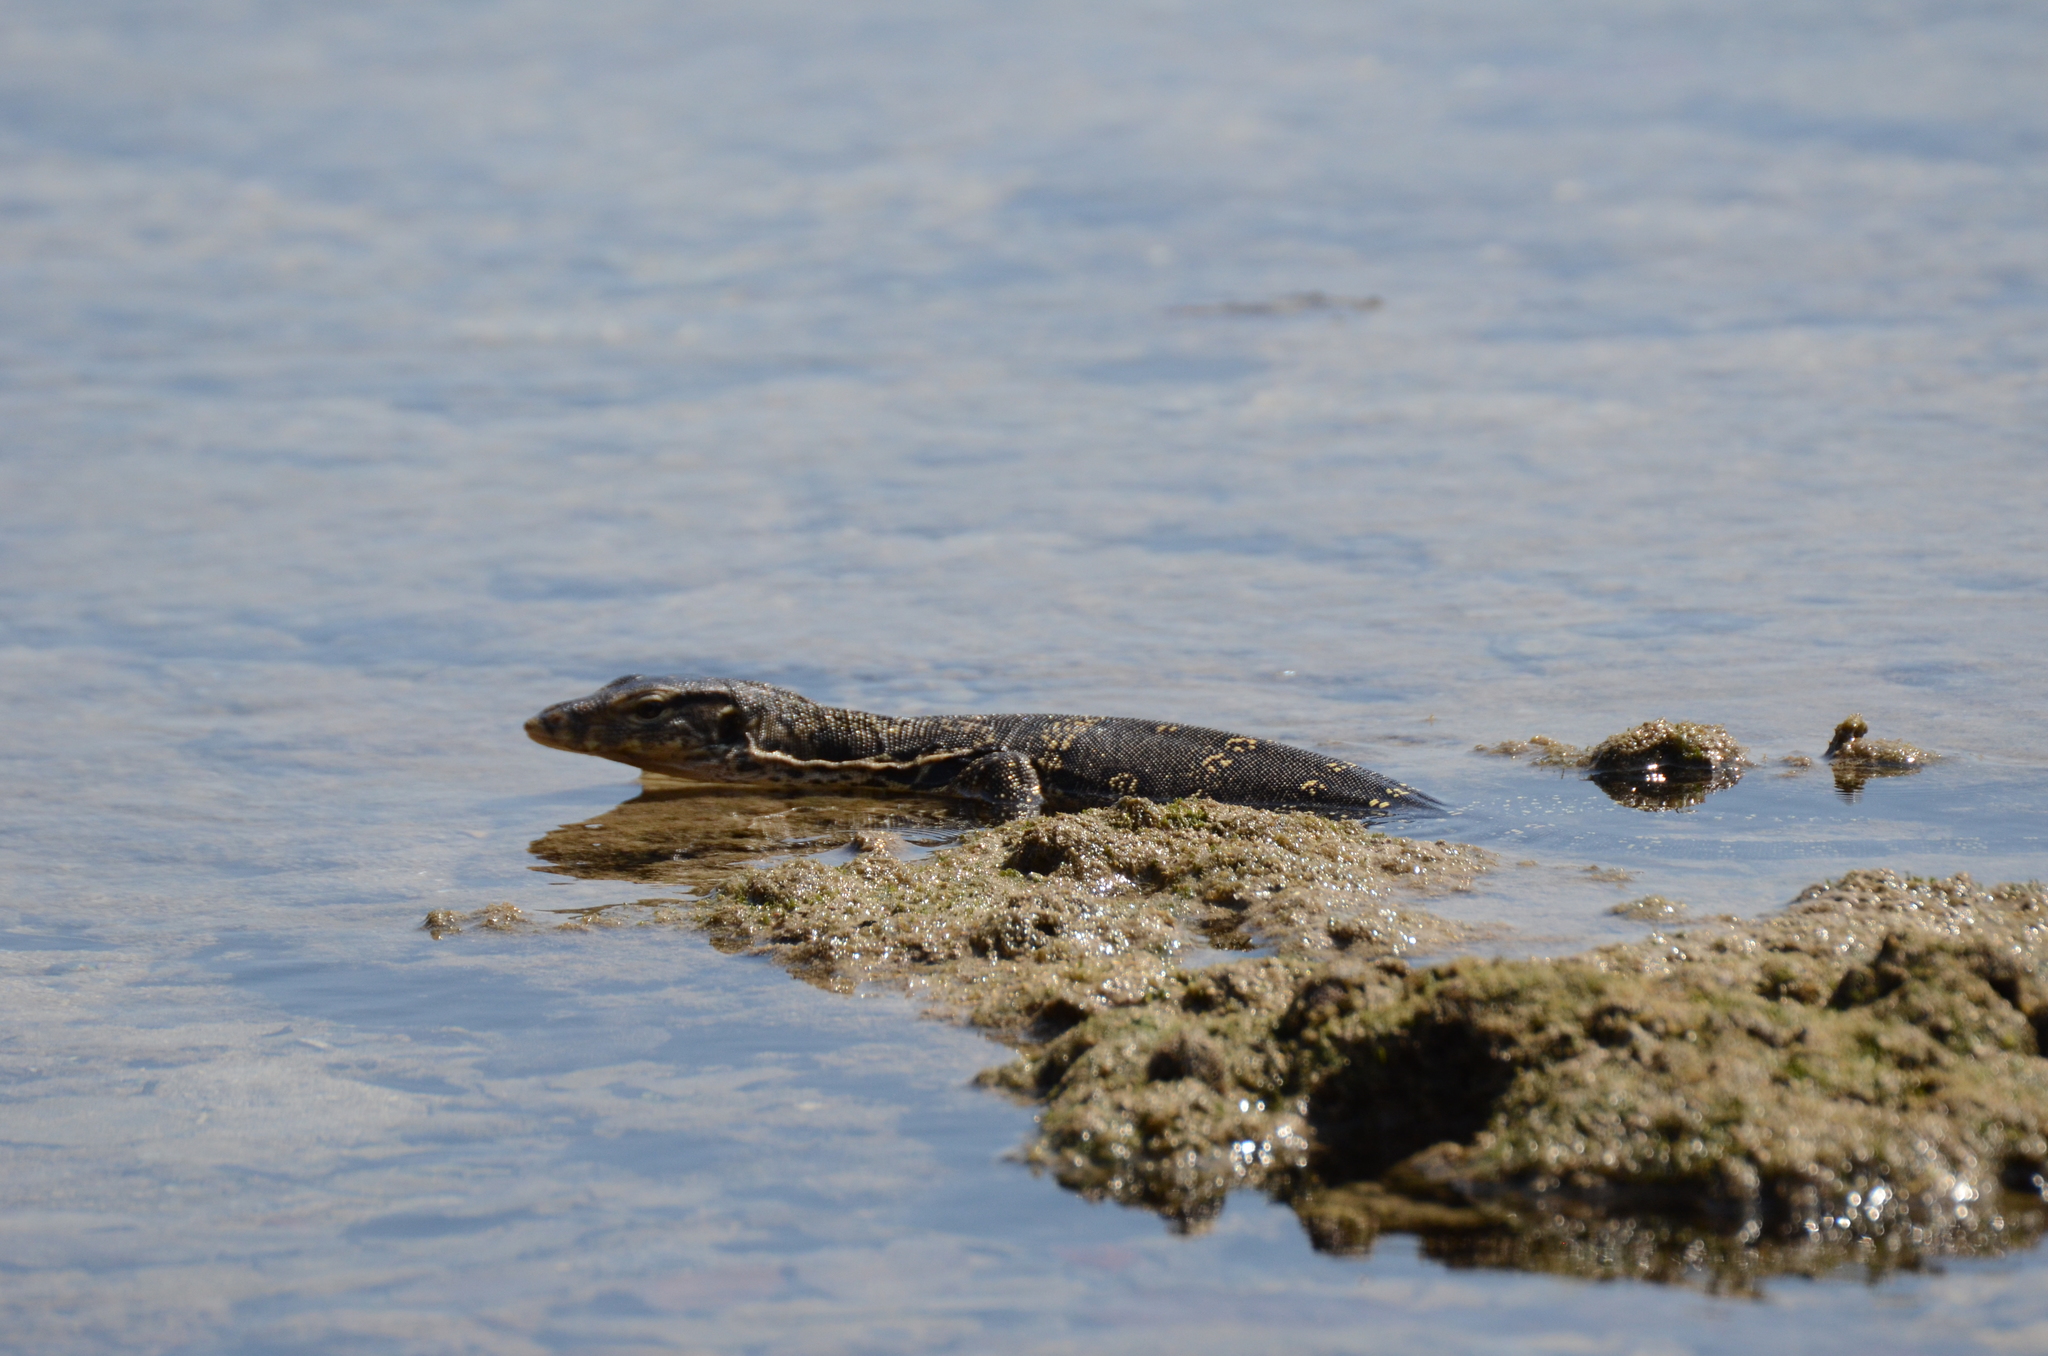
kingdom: Animalia
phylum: Chordata
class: Squamata
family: Varanidae
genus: Varanus
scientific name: Varanus salvator
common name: Common water monitor
